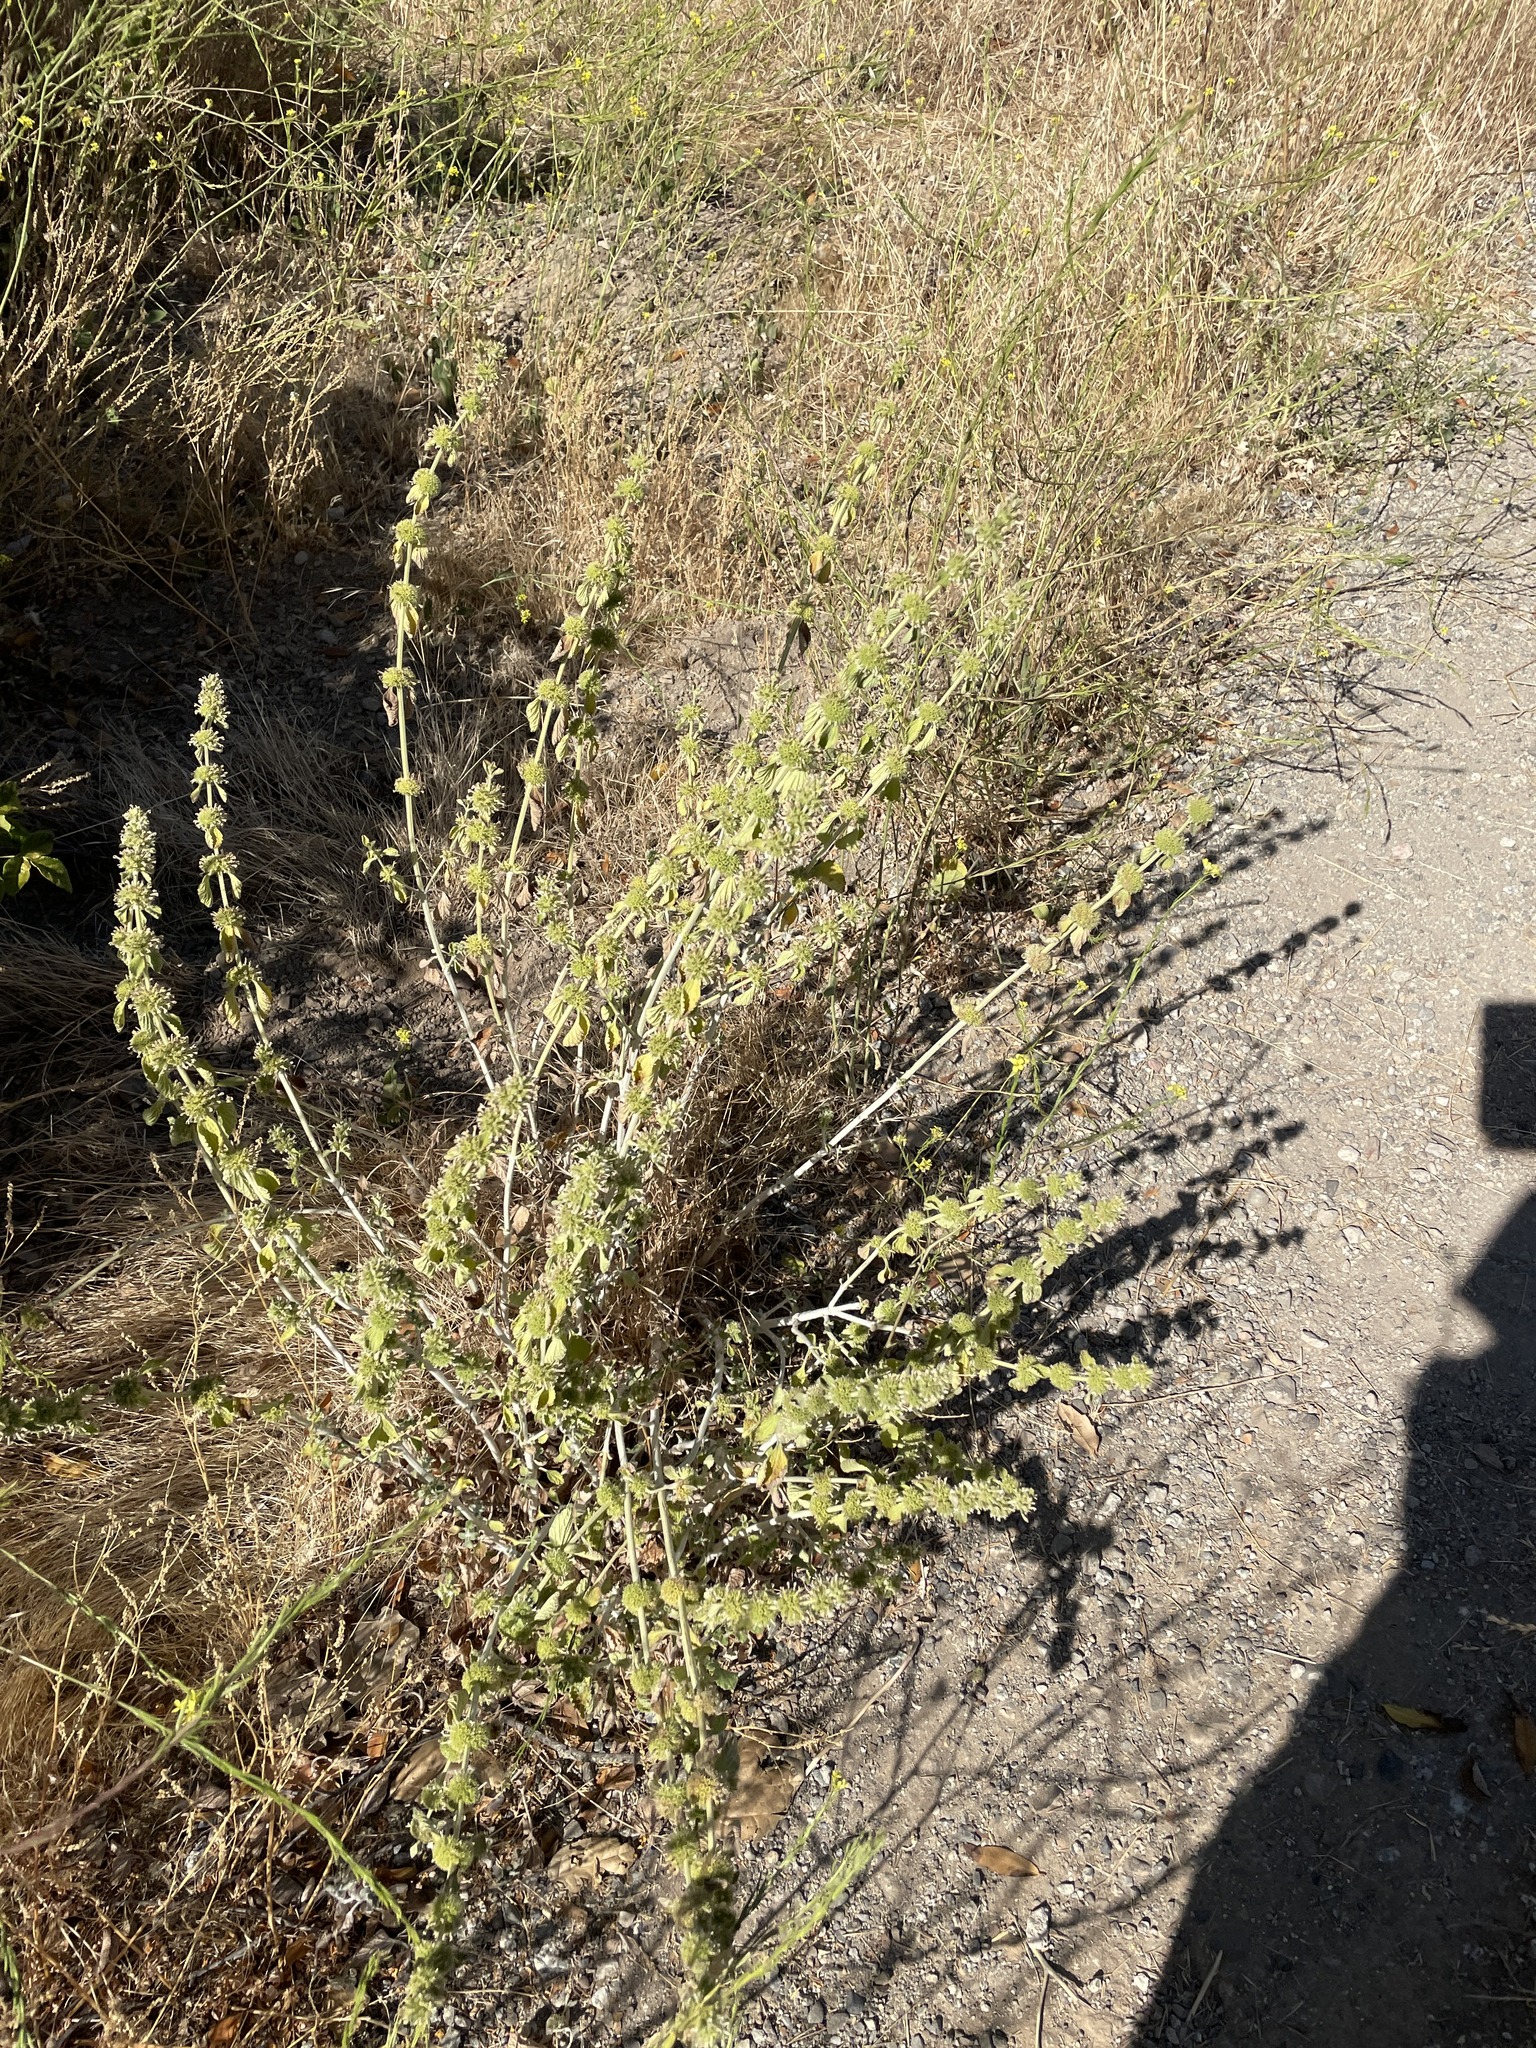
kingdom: Plantae
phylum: Tracheophyta
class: Magnoliopsida
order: Lamiales
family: Lamiaceae
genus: Marrubium
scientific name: Marrubium vulgare
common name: Horehound
